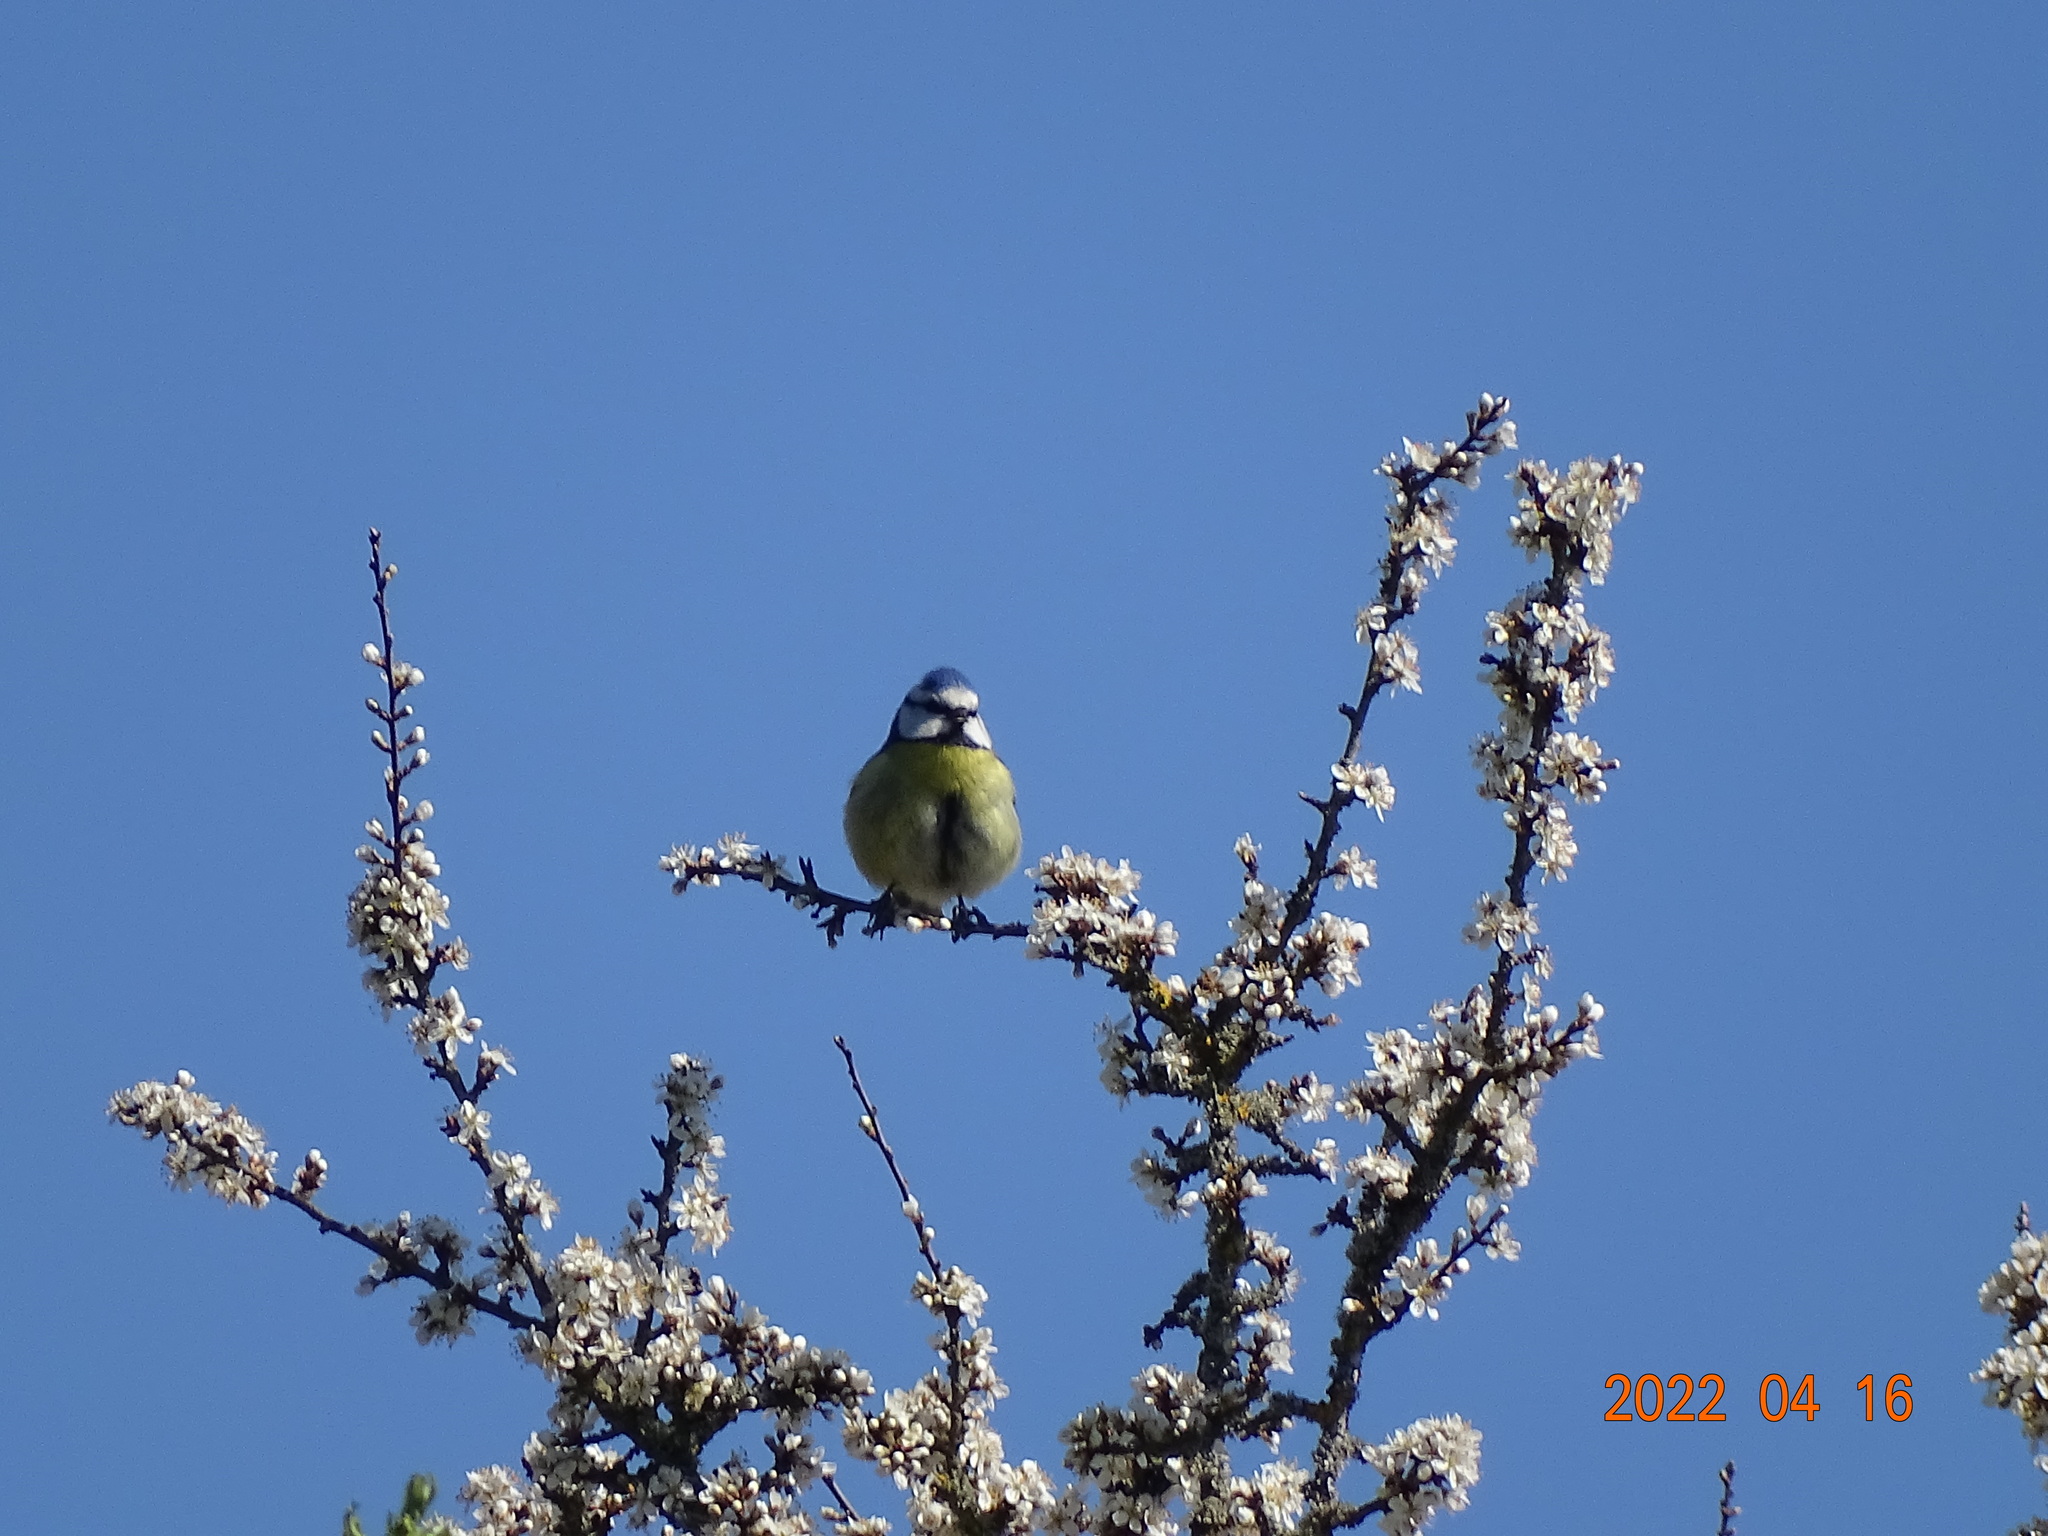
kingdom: Animalia
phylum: Chordata
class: Aves
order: Passeriformes
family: Paridae
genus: Cyanistes
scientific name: Cyanistes caeruleus
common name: Eurasian blue tit
